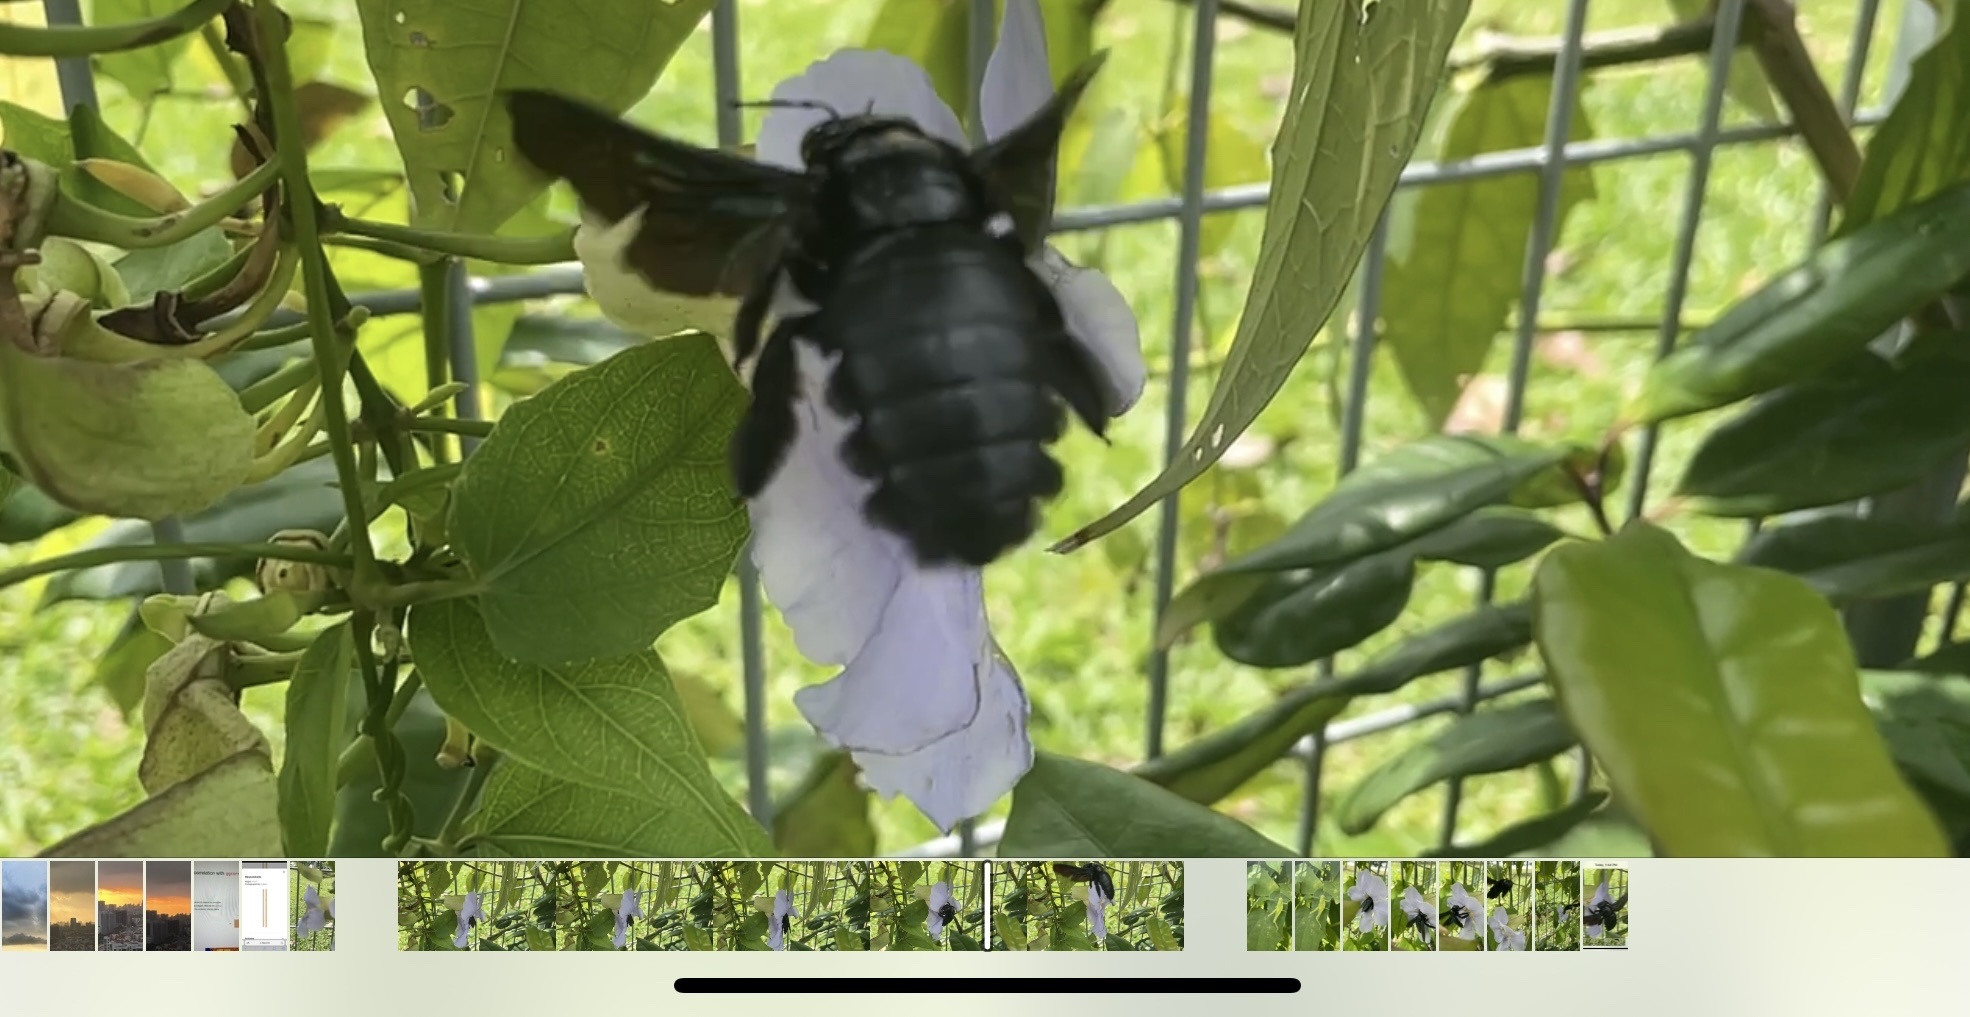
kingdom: Animalia
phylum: Arthropoda
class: Insecta
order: Hymenoptera
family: Apidae
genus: Xylocopa
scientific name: Xylocopa latipes
